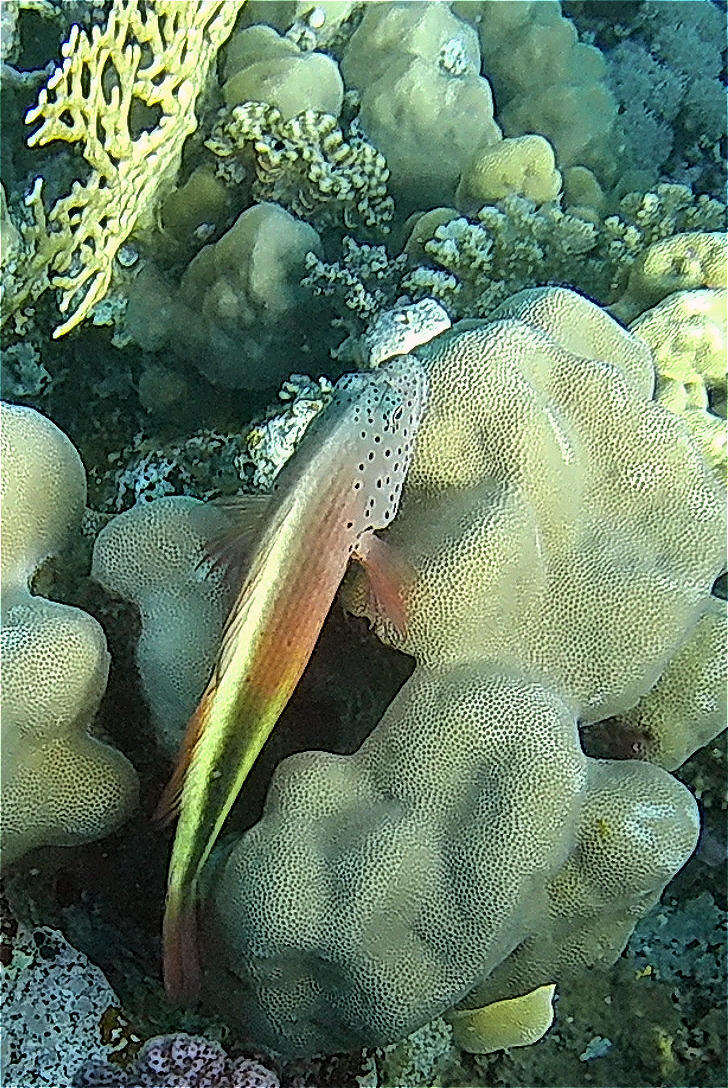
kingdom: Animalia
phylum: Chordata
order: Perciformes
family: Cirrhitidae
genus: Paracirrhites
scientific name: Paracirrhites forsteri
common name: Freckled hawkfish
